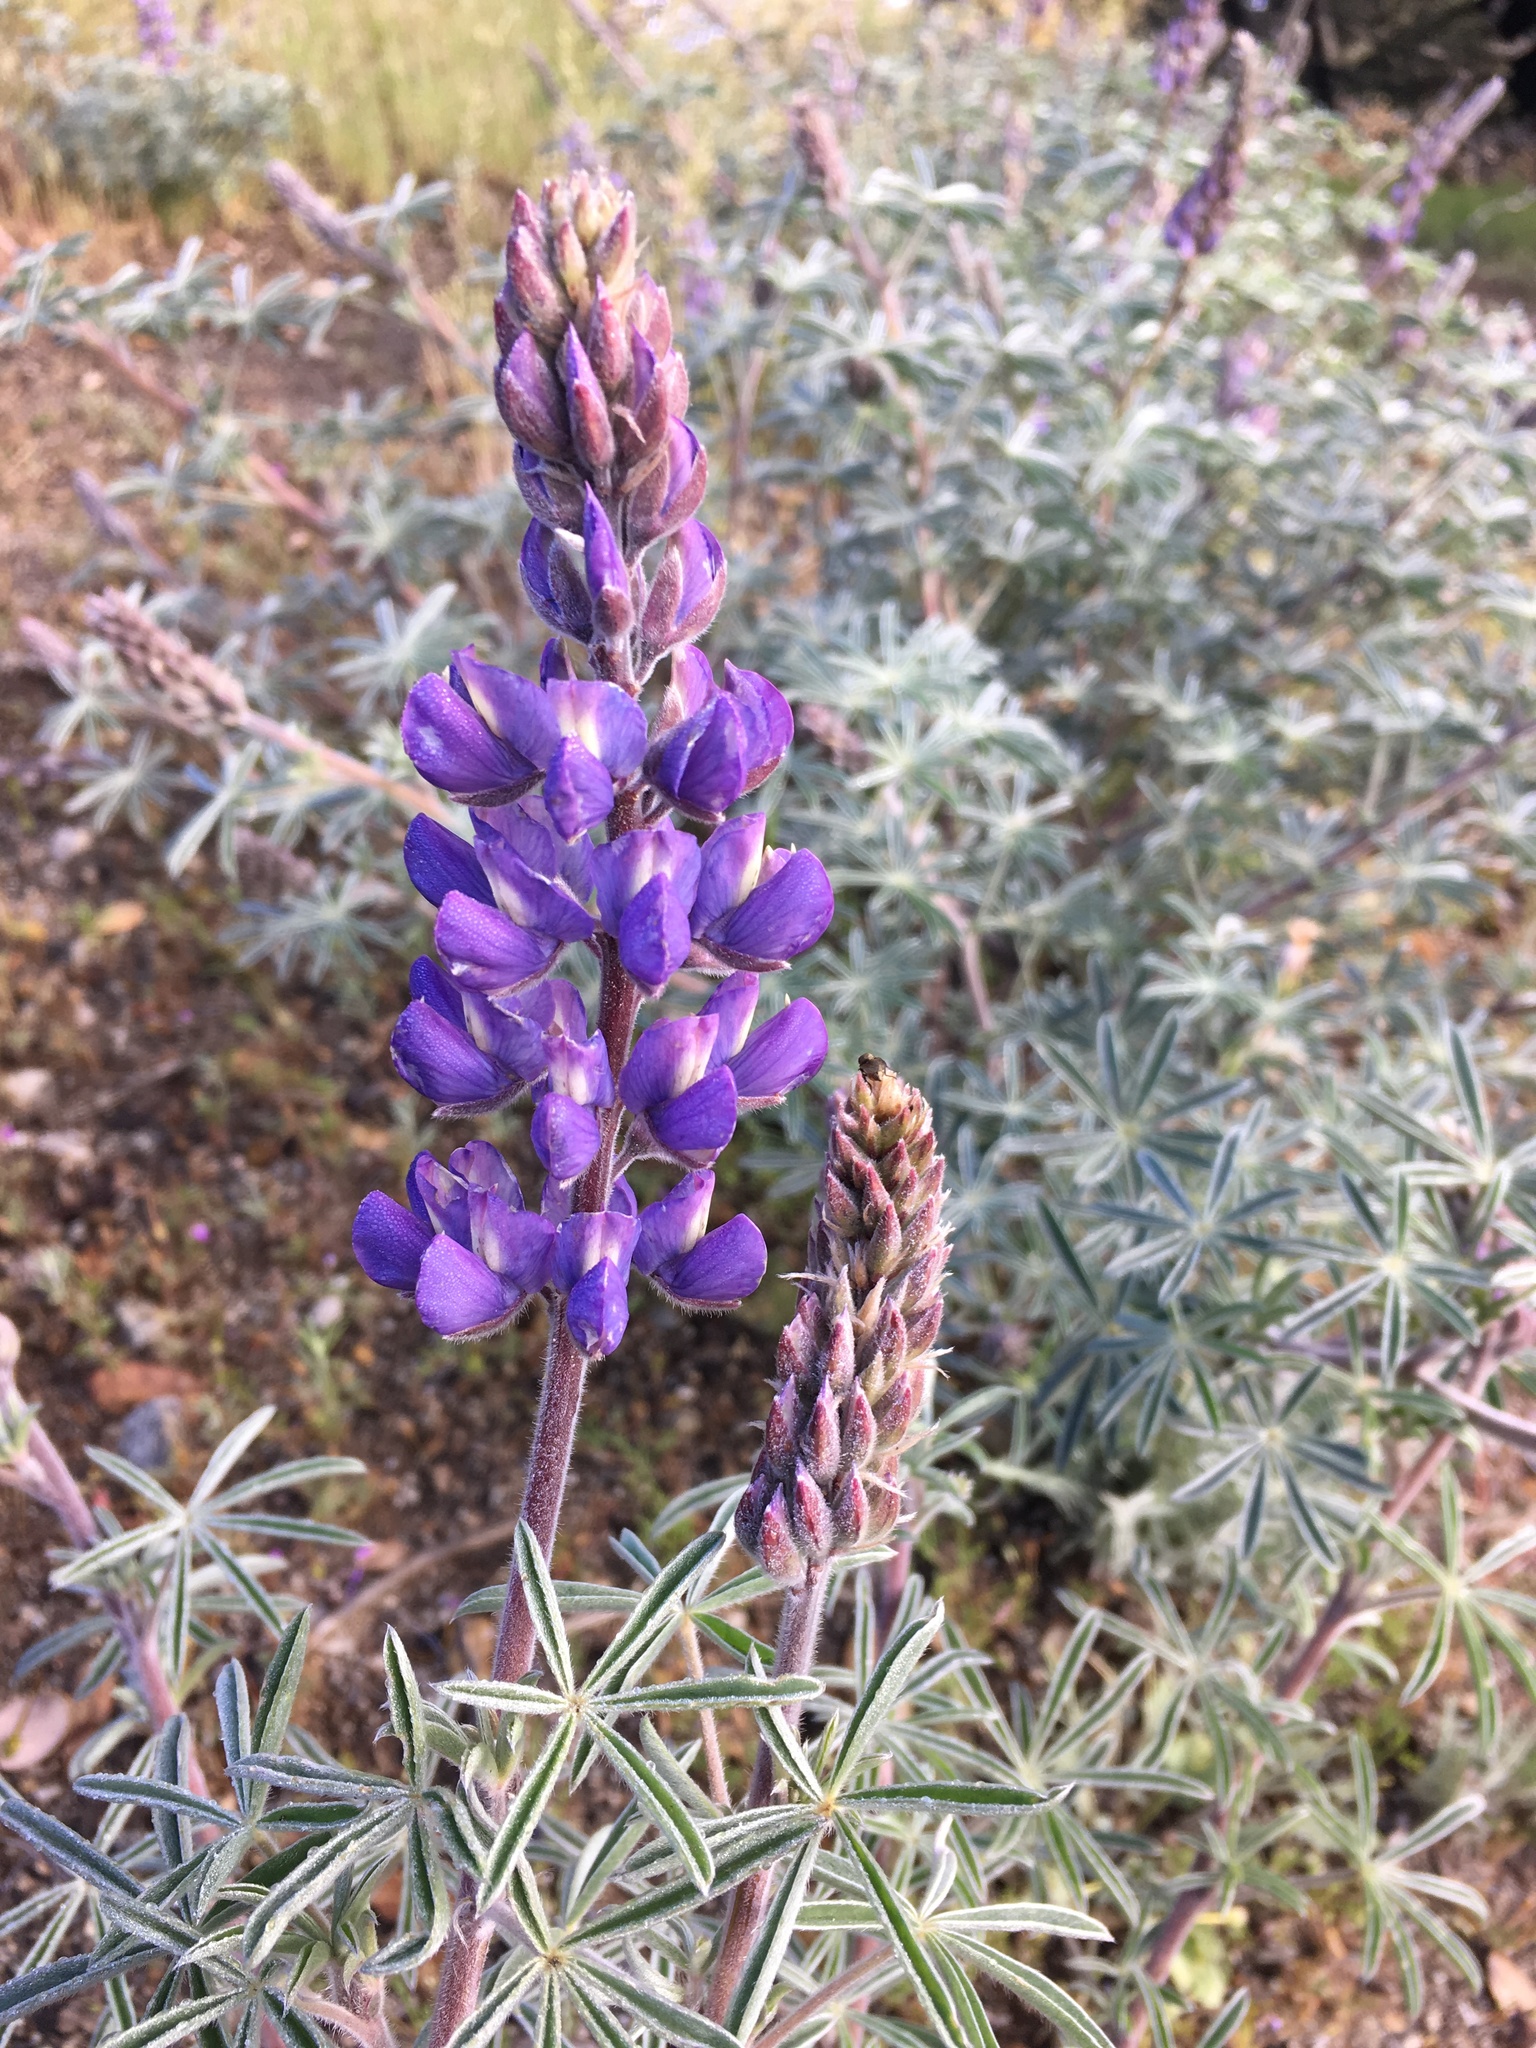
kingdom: Plantae
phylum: Tracheophyta
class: Magnoliopsida
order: Fabales
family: Fabaceae
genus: Lupinus
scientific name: Lupinus formosus
